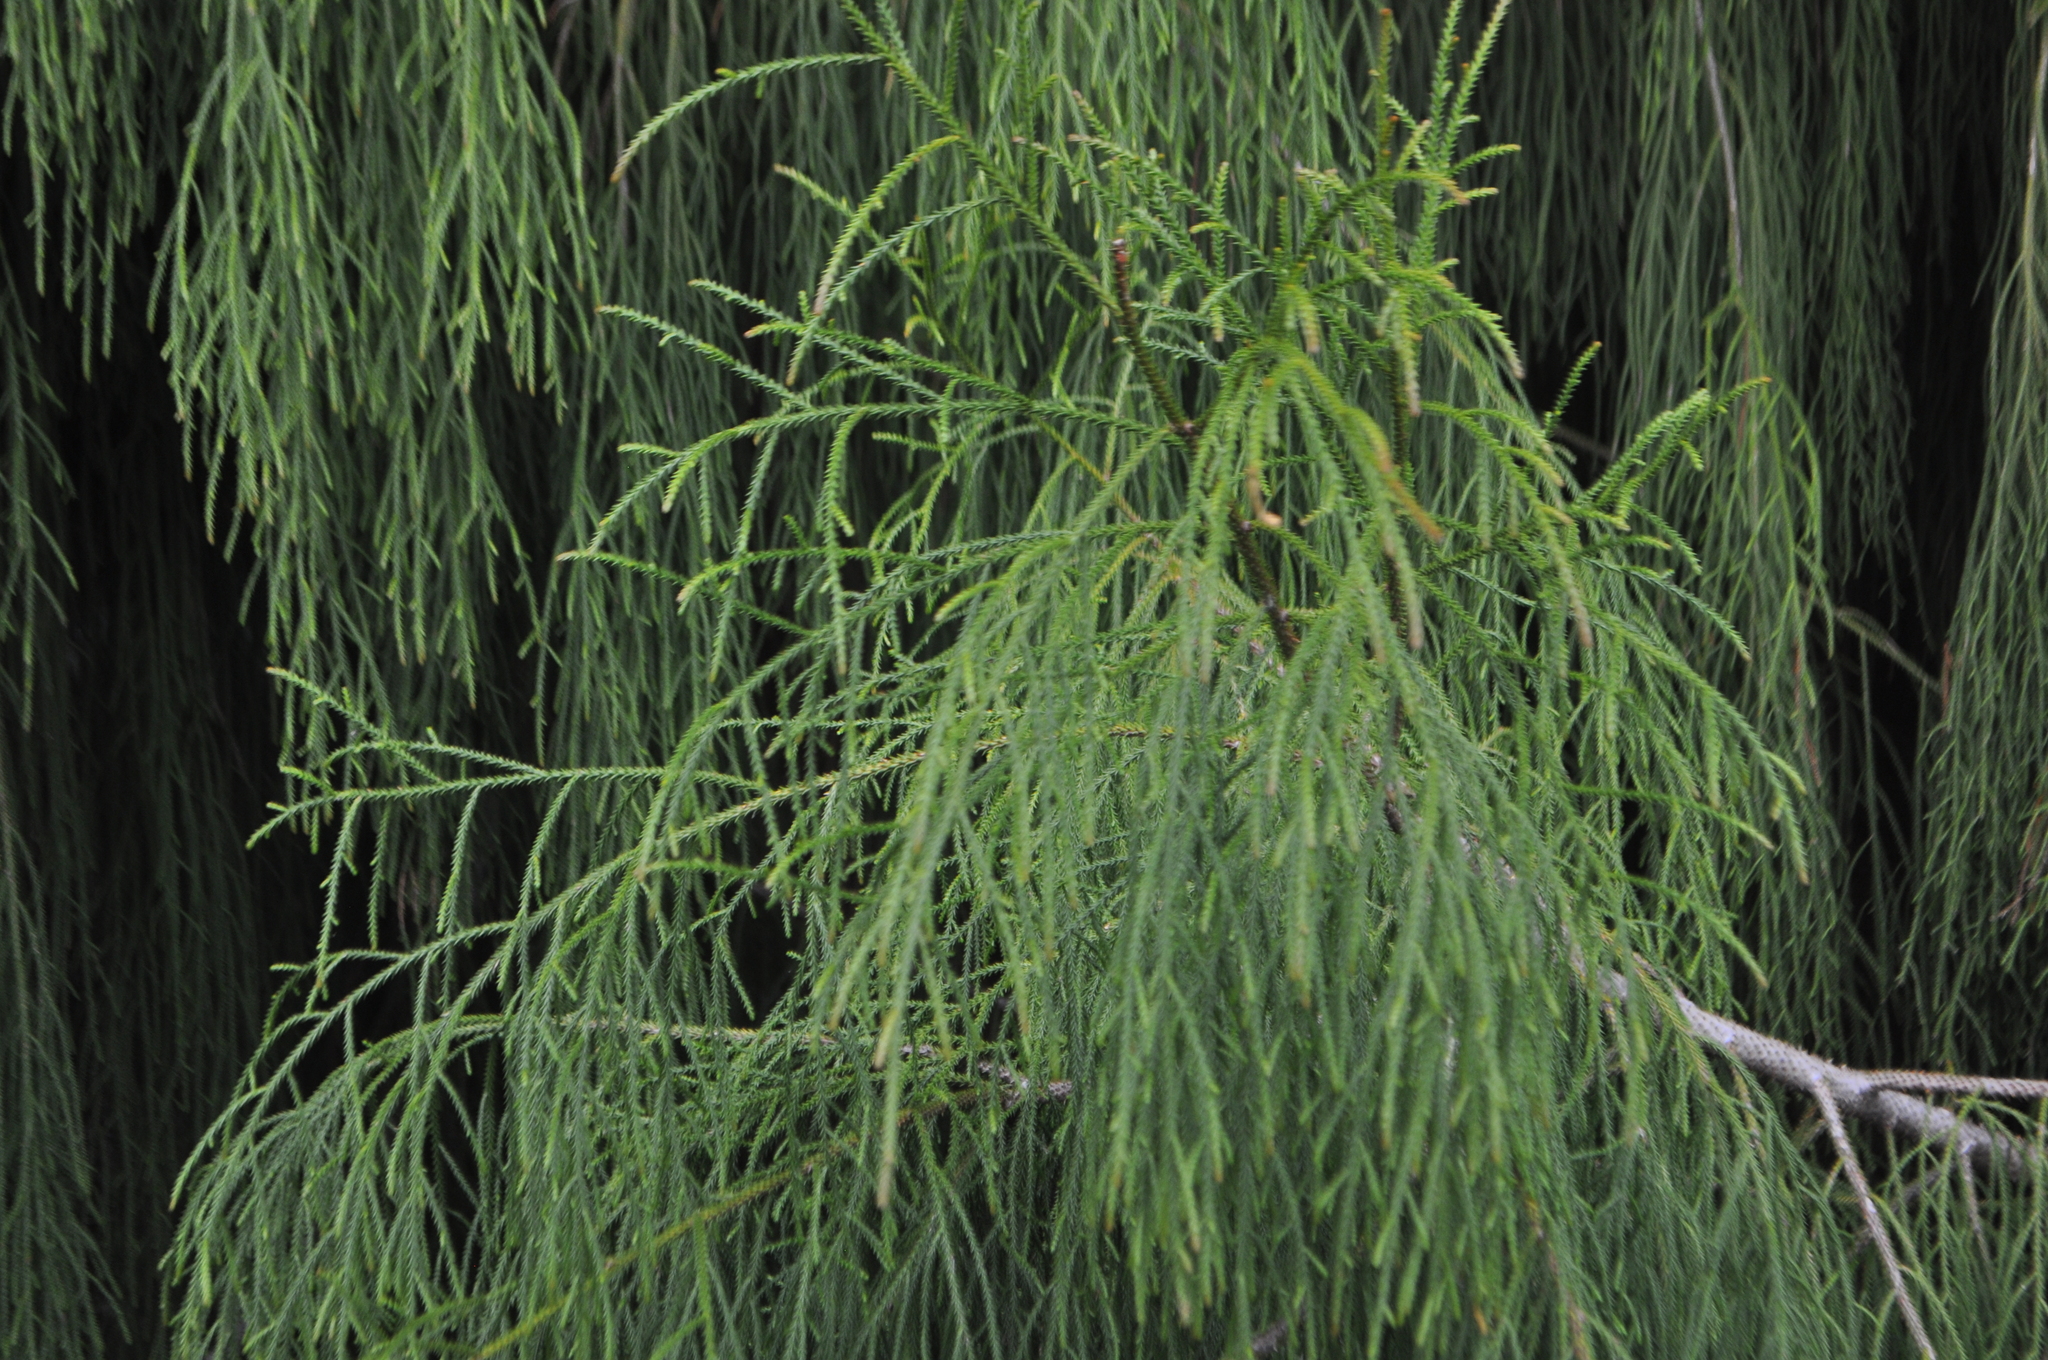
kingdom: Plantae
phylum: Tracheophyta
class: Pinopsida
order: Pinales
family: Podocarpaceae
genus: Dacrydium
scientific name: Dacrydium cupressinum
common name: Red pine
